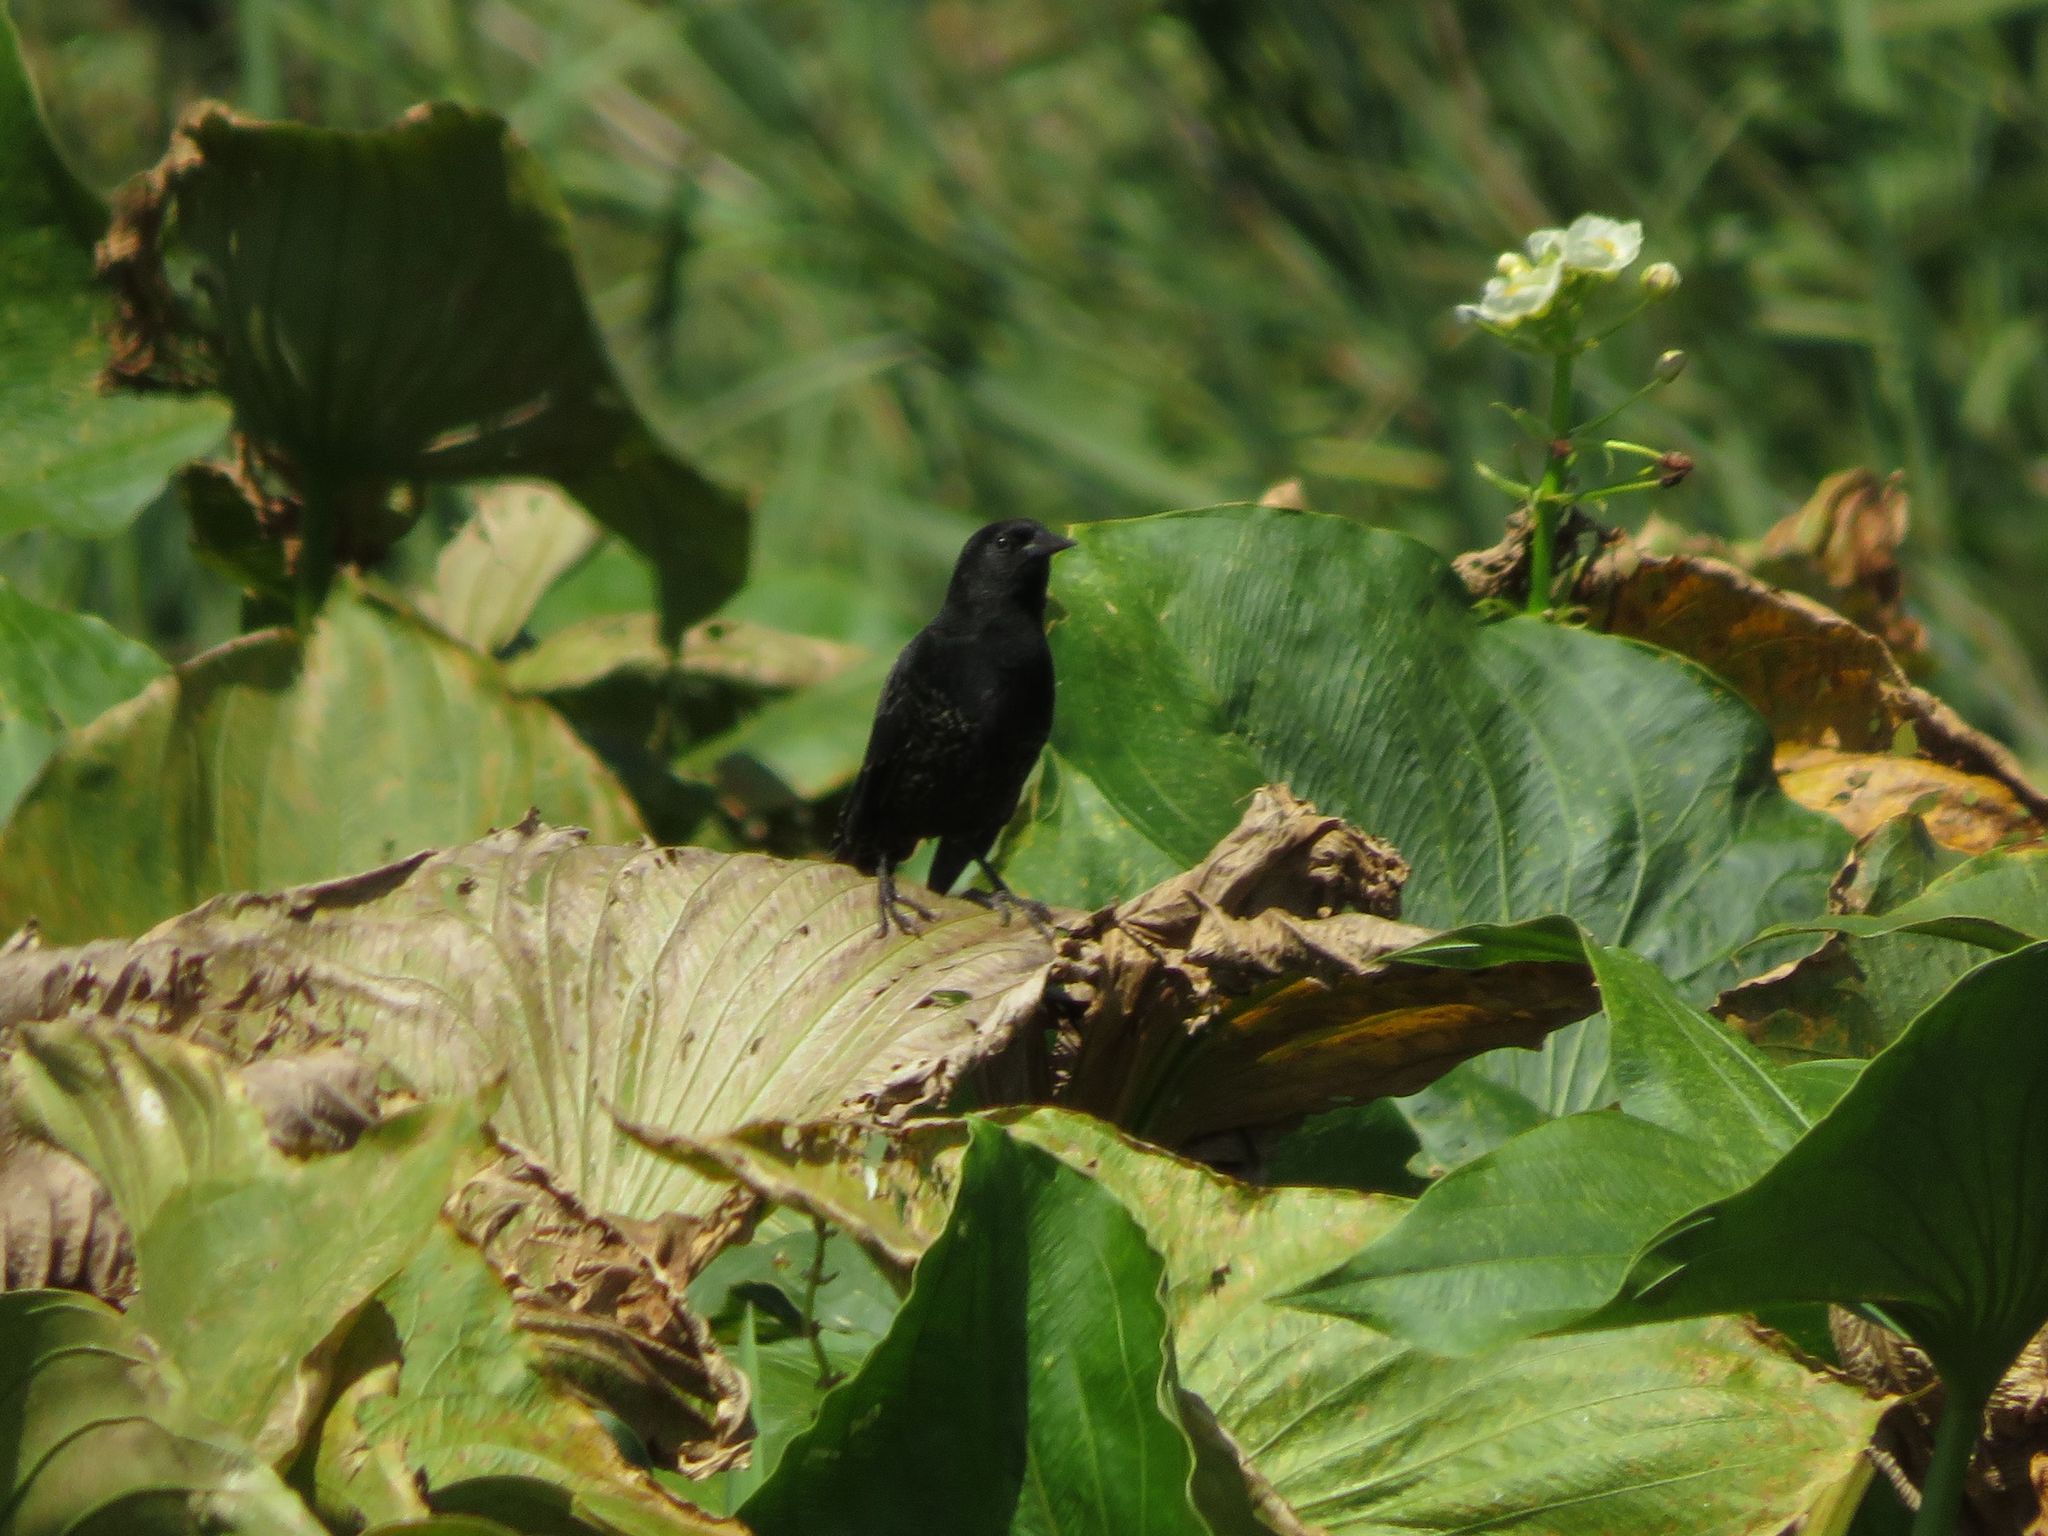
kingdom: Animalia
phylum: Chordata
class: Aves
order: Passeriformes
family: Icteridae
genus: Agelasticus
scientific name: Agelasticus thilius
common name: Yellow-winged blackbird
